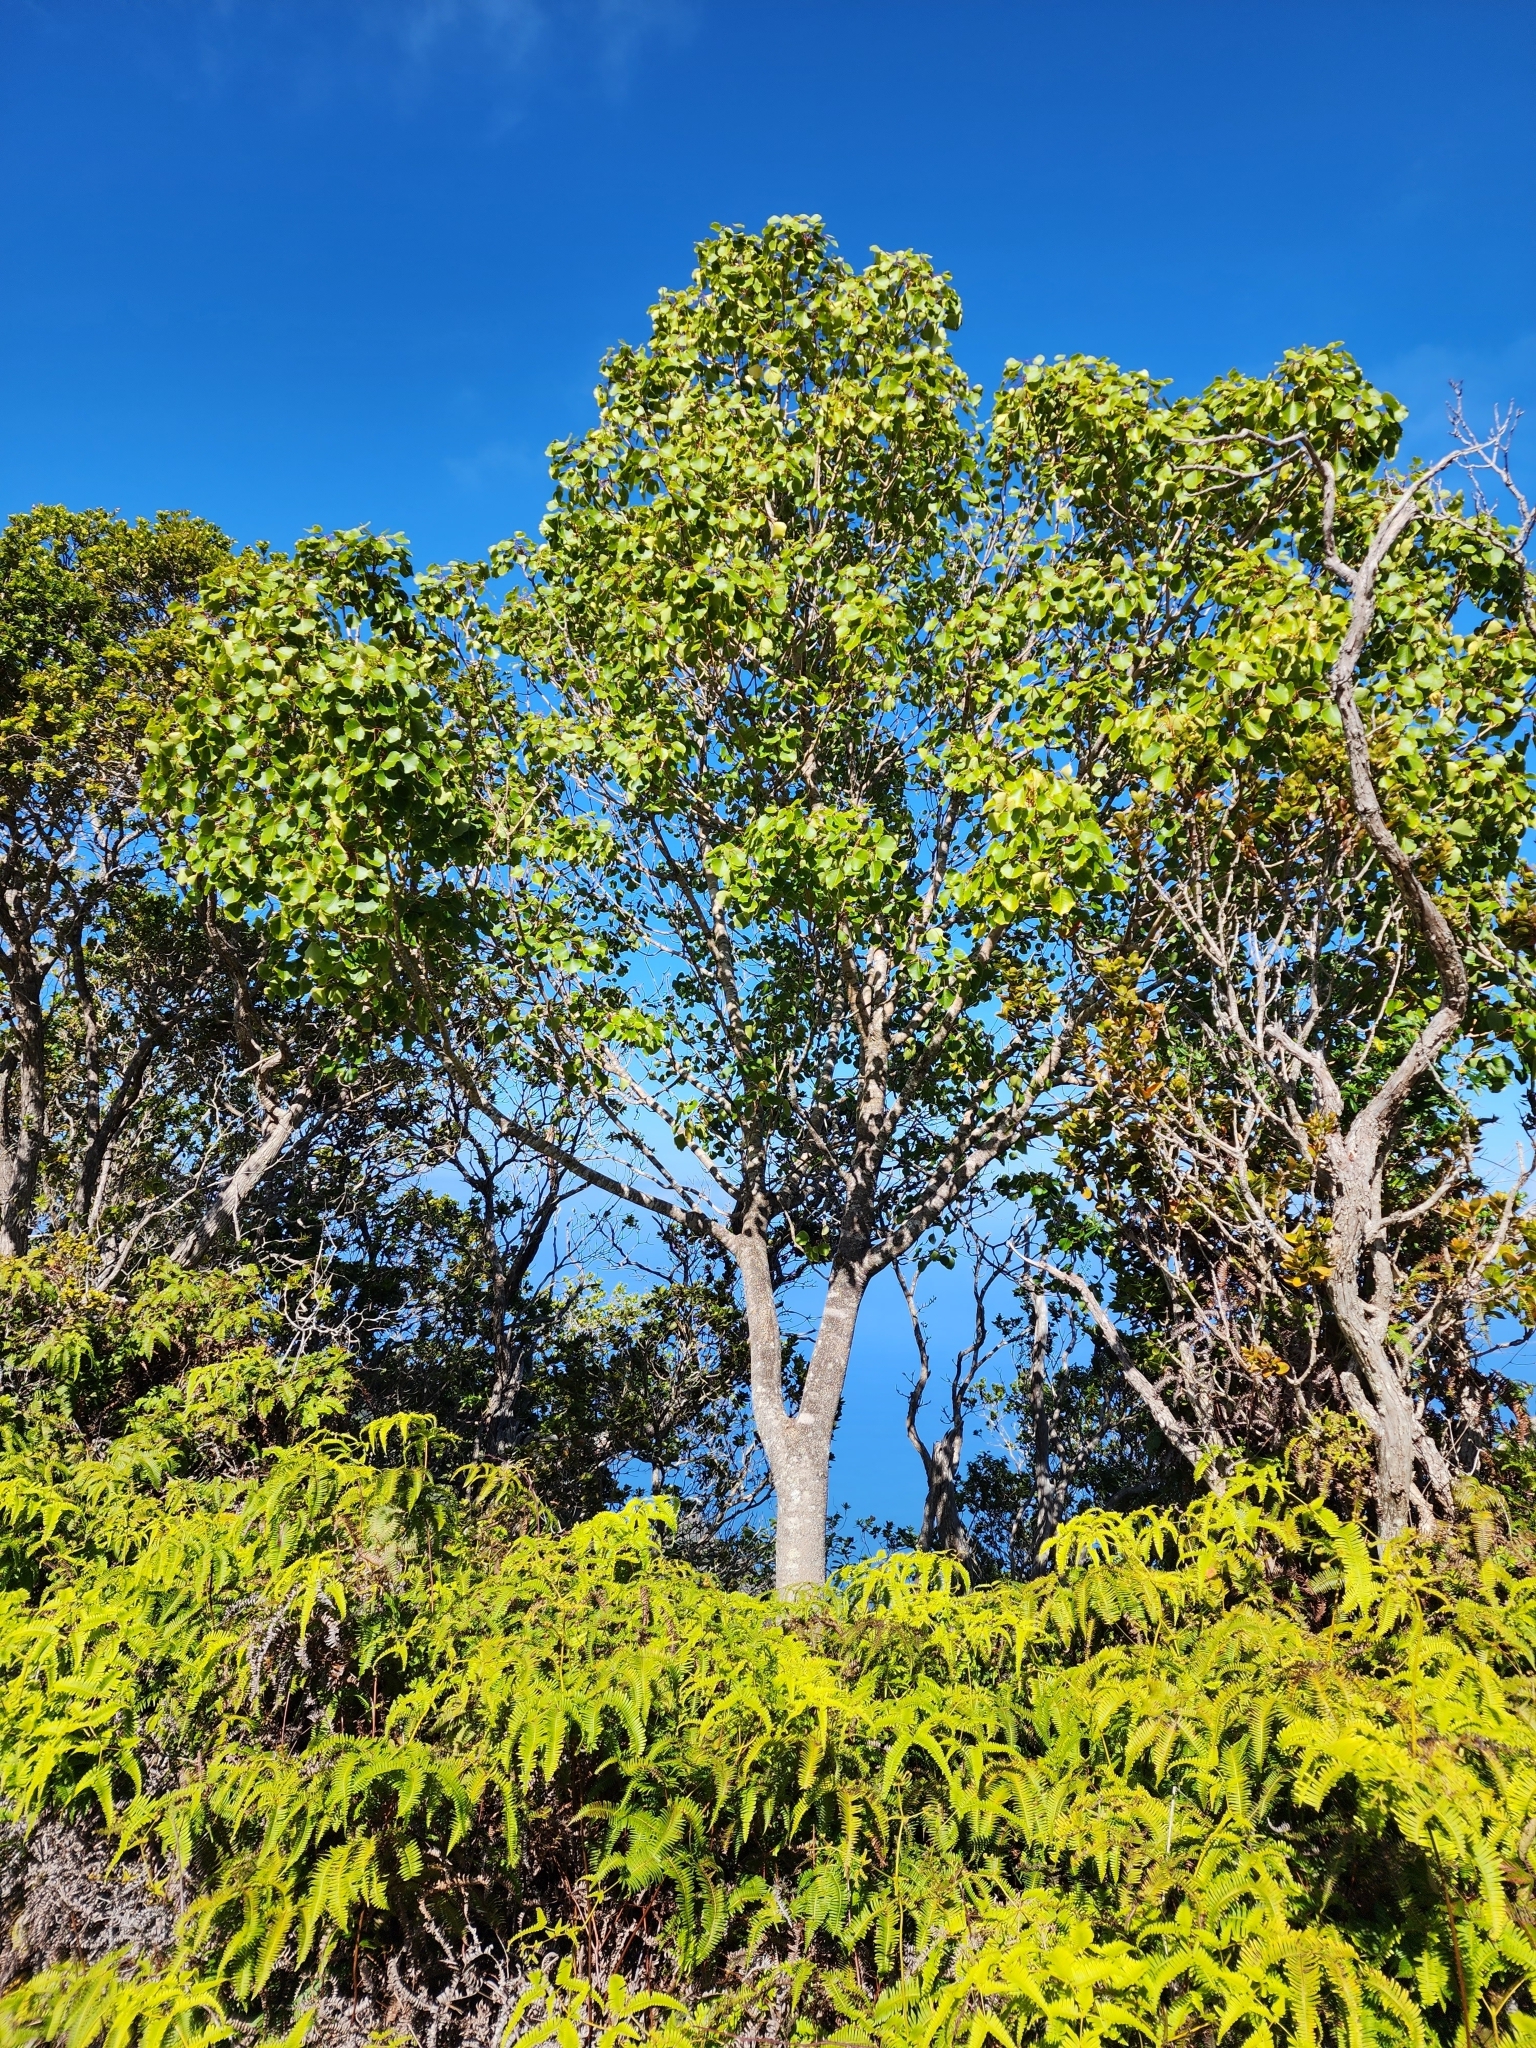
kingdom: Plantae
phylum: Tracheophyta
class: Magnoliopsida
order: Apiales
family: Araliaceae
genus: Cheirodendron
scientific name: Cheirodendron platyphyllum
